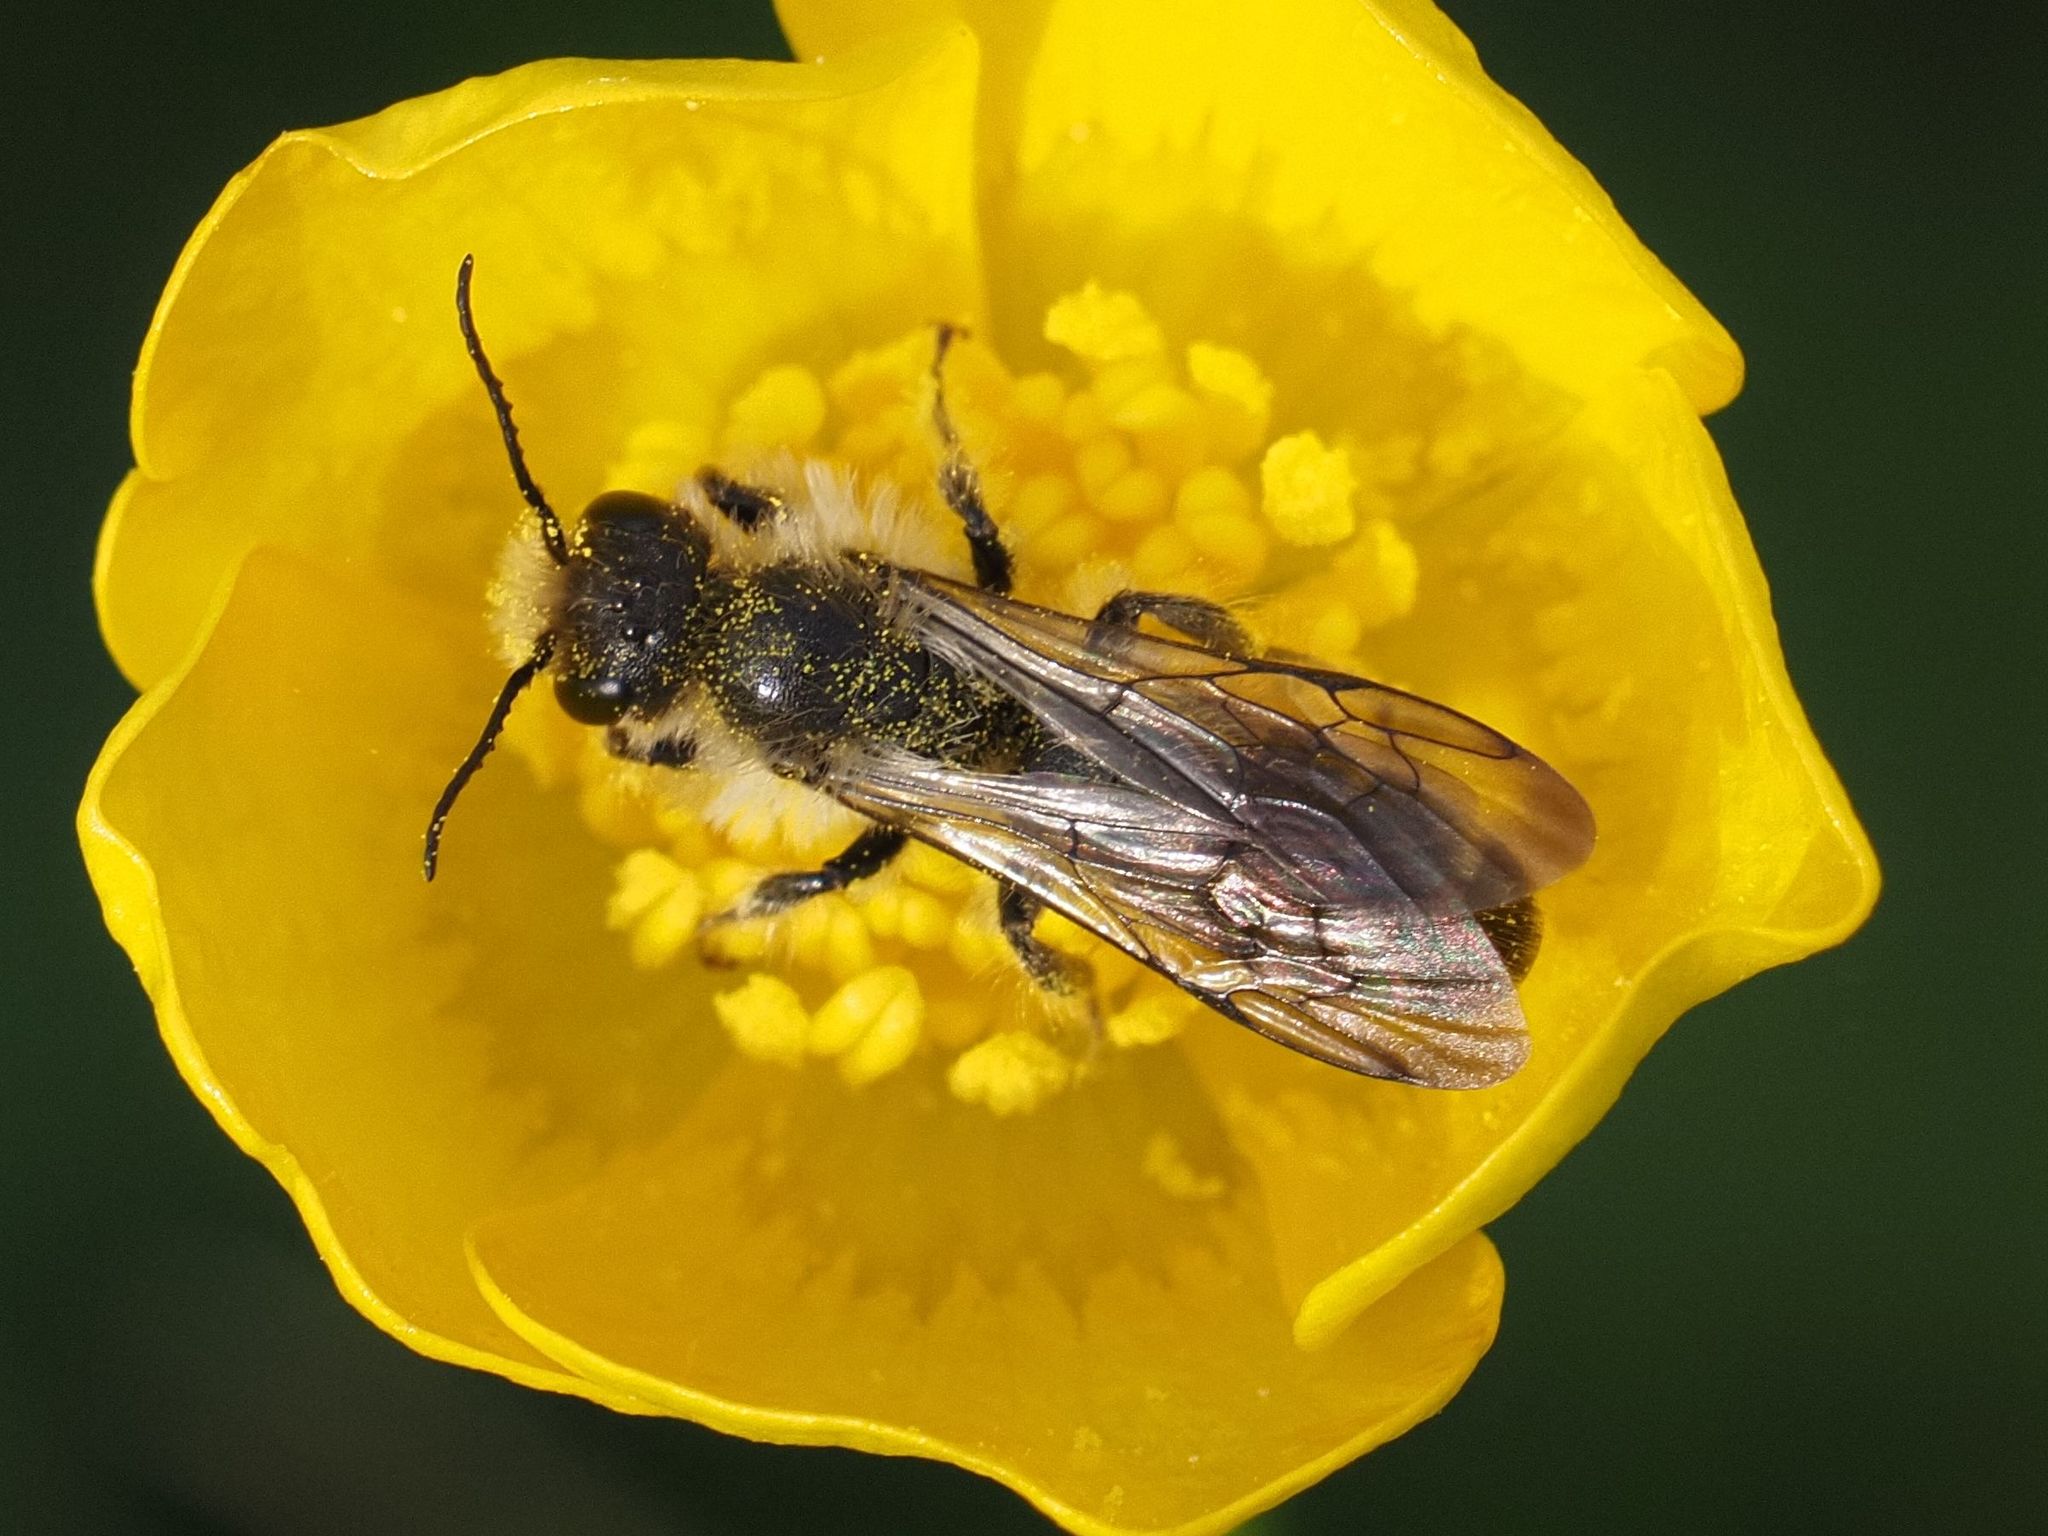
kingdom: Animalia
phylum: Arthropoda
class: Insecta
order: Hymenoptera
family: Megachilidae
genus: Chelostoma
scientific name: Chelostoma florisomne
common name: Sleepy carpenter bee
